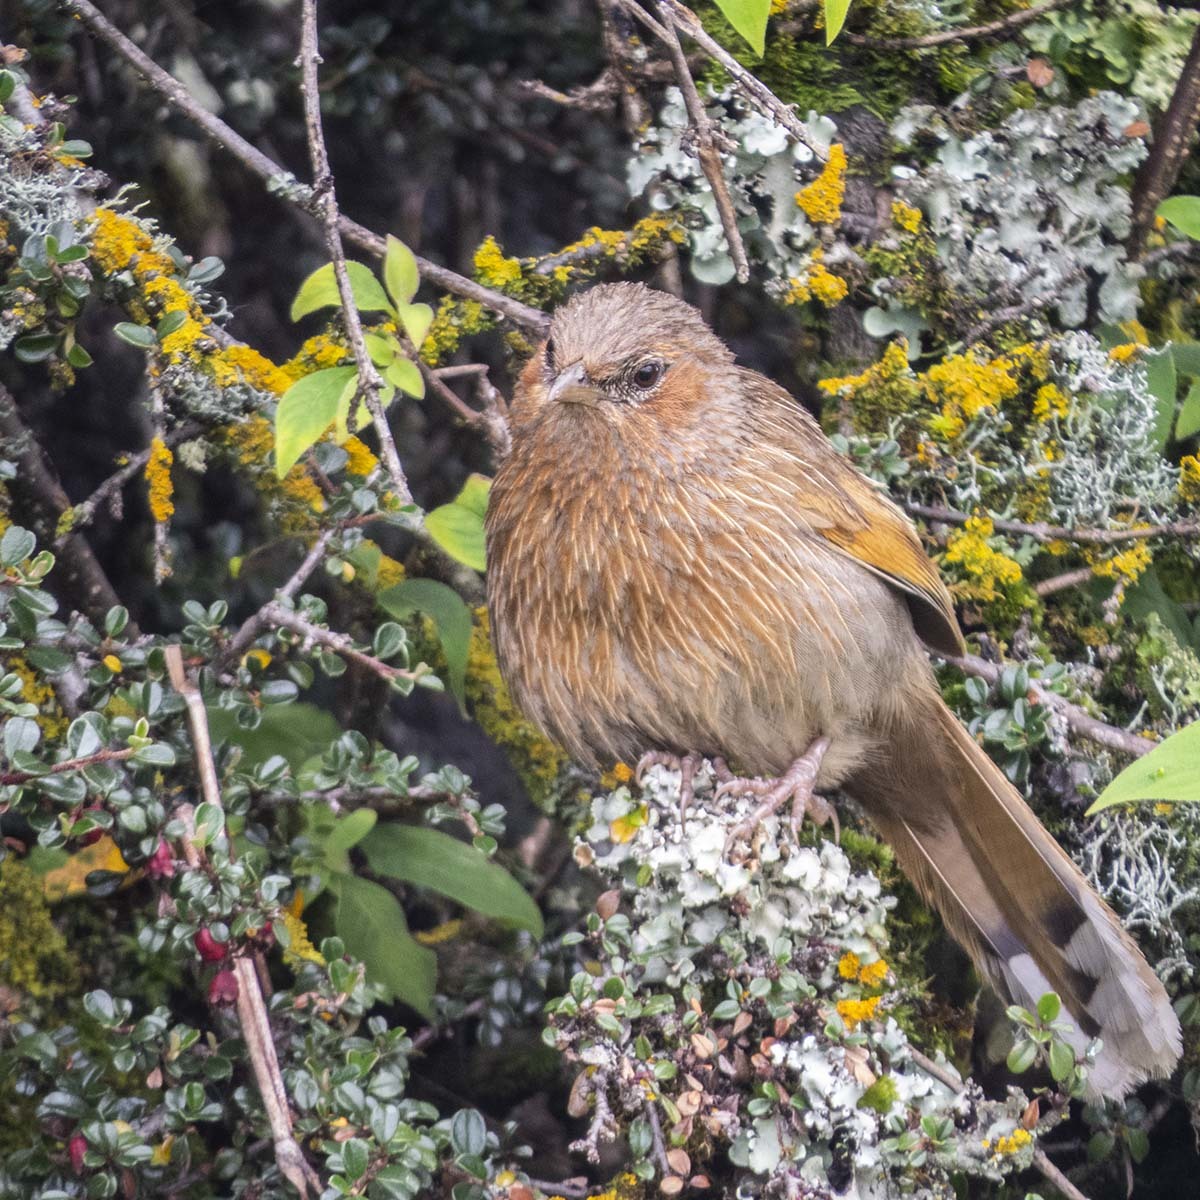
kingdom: Animalia
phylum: Chordata
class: Aves
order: Passeriformes
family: Leiothrichidae
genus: Trochalopteron
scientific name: Trochalopteron lineatum
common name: Streaked laughingthrush
